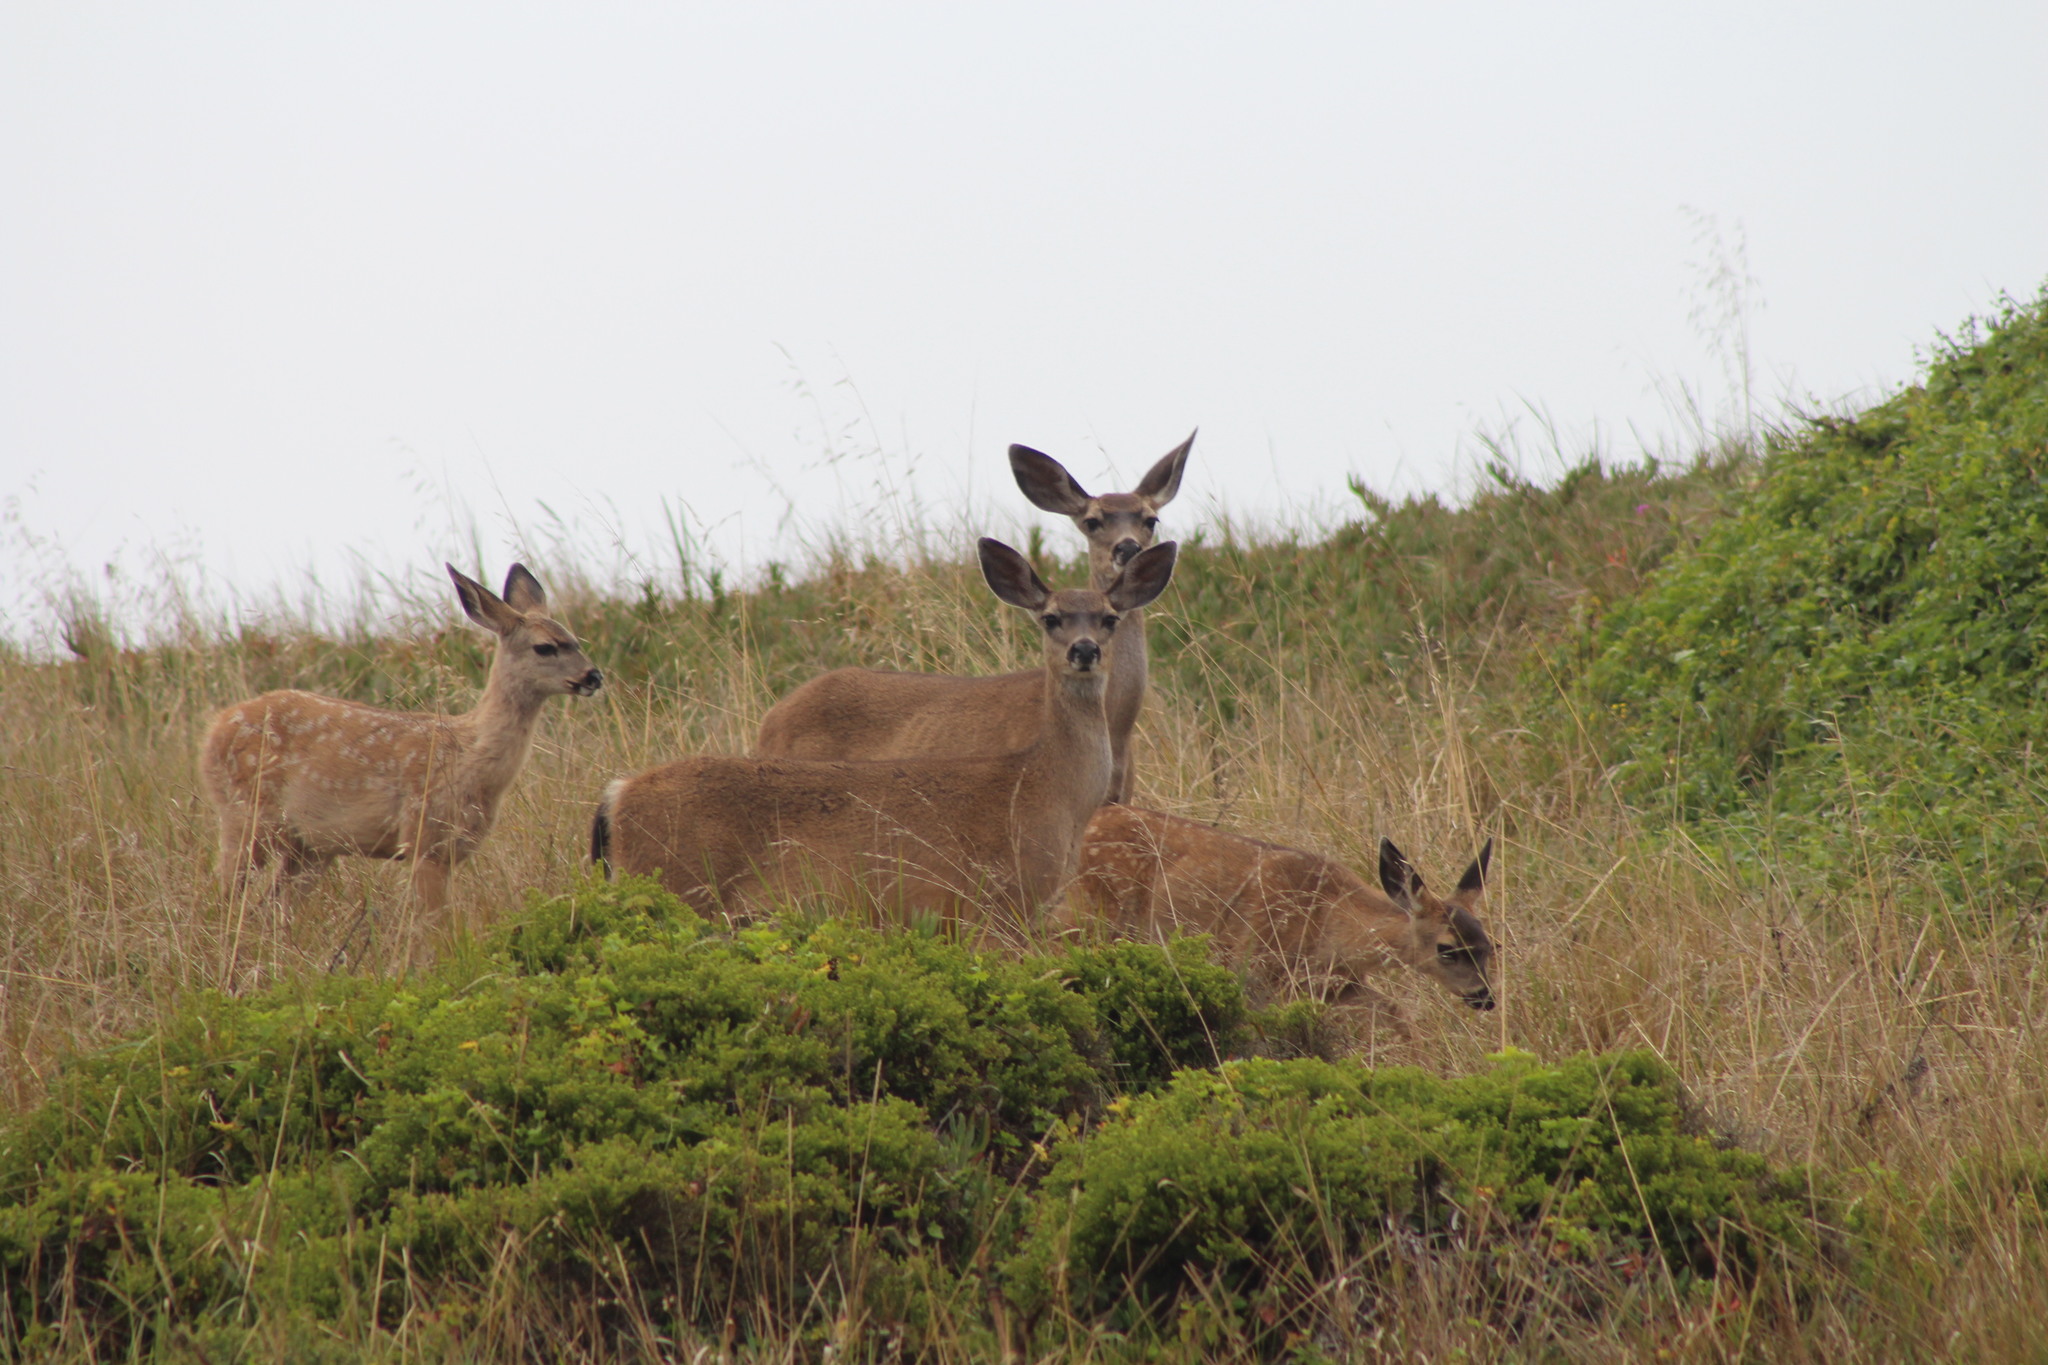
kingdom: Animalia
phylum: Chordata
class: Mammalia
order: Artiodactyla
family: Cervidae
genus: Odocoileus
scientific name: Odocoileus hemionus
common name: Mule deer
